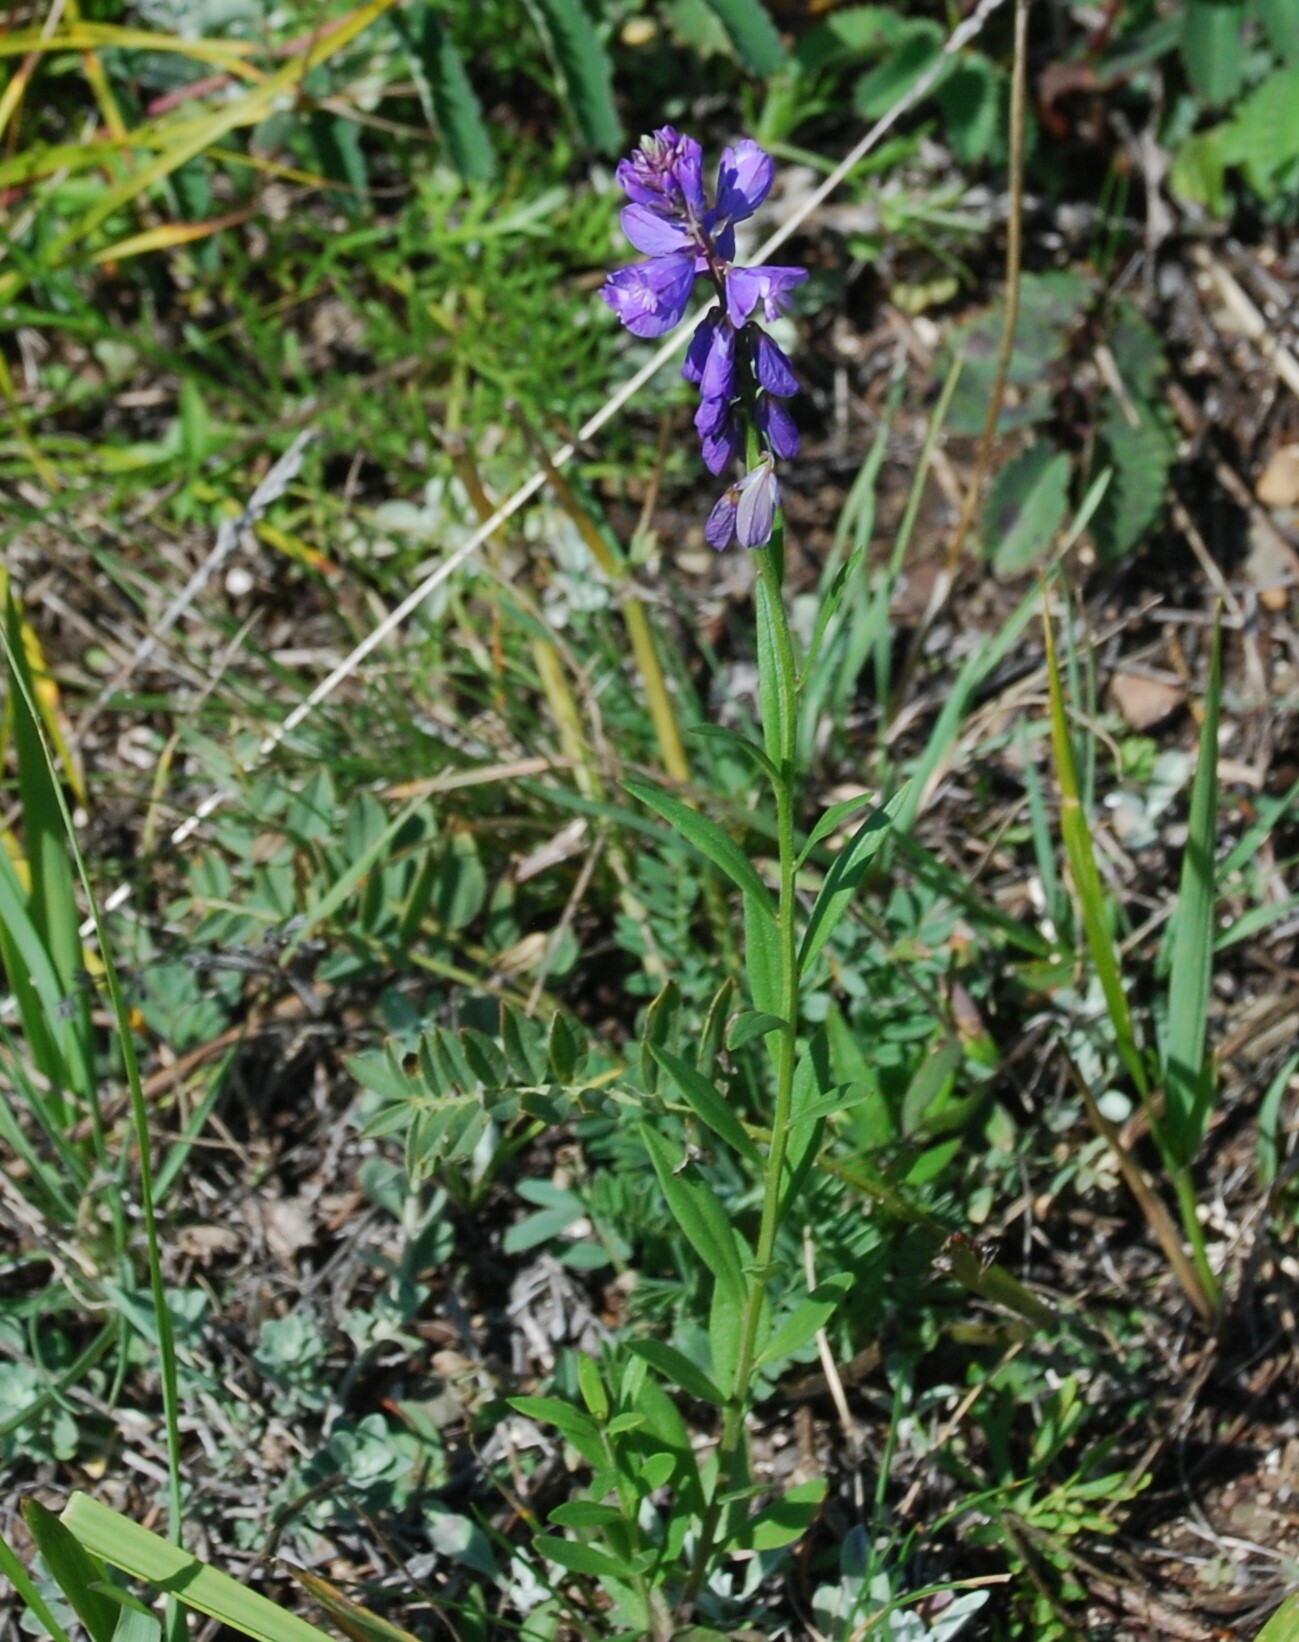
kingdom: Plantae
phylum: Tracheophyta
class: Magnoliopsida
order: Fabales
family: Polygalaceae
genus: Polygala
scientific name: Polygala comosa
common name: Tufted milkwort
